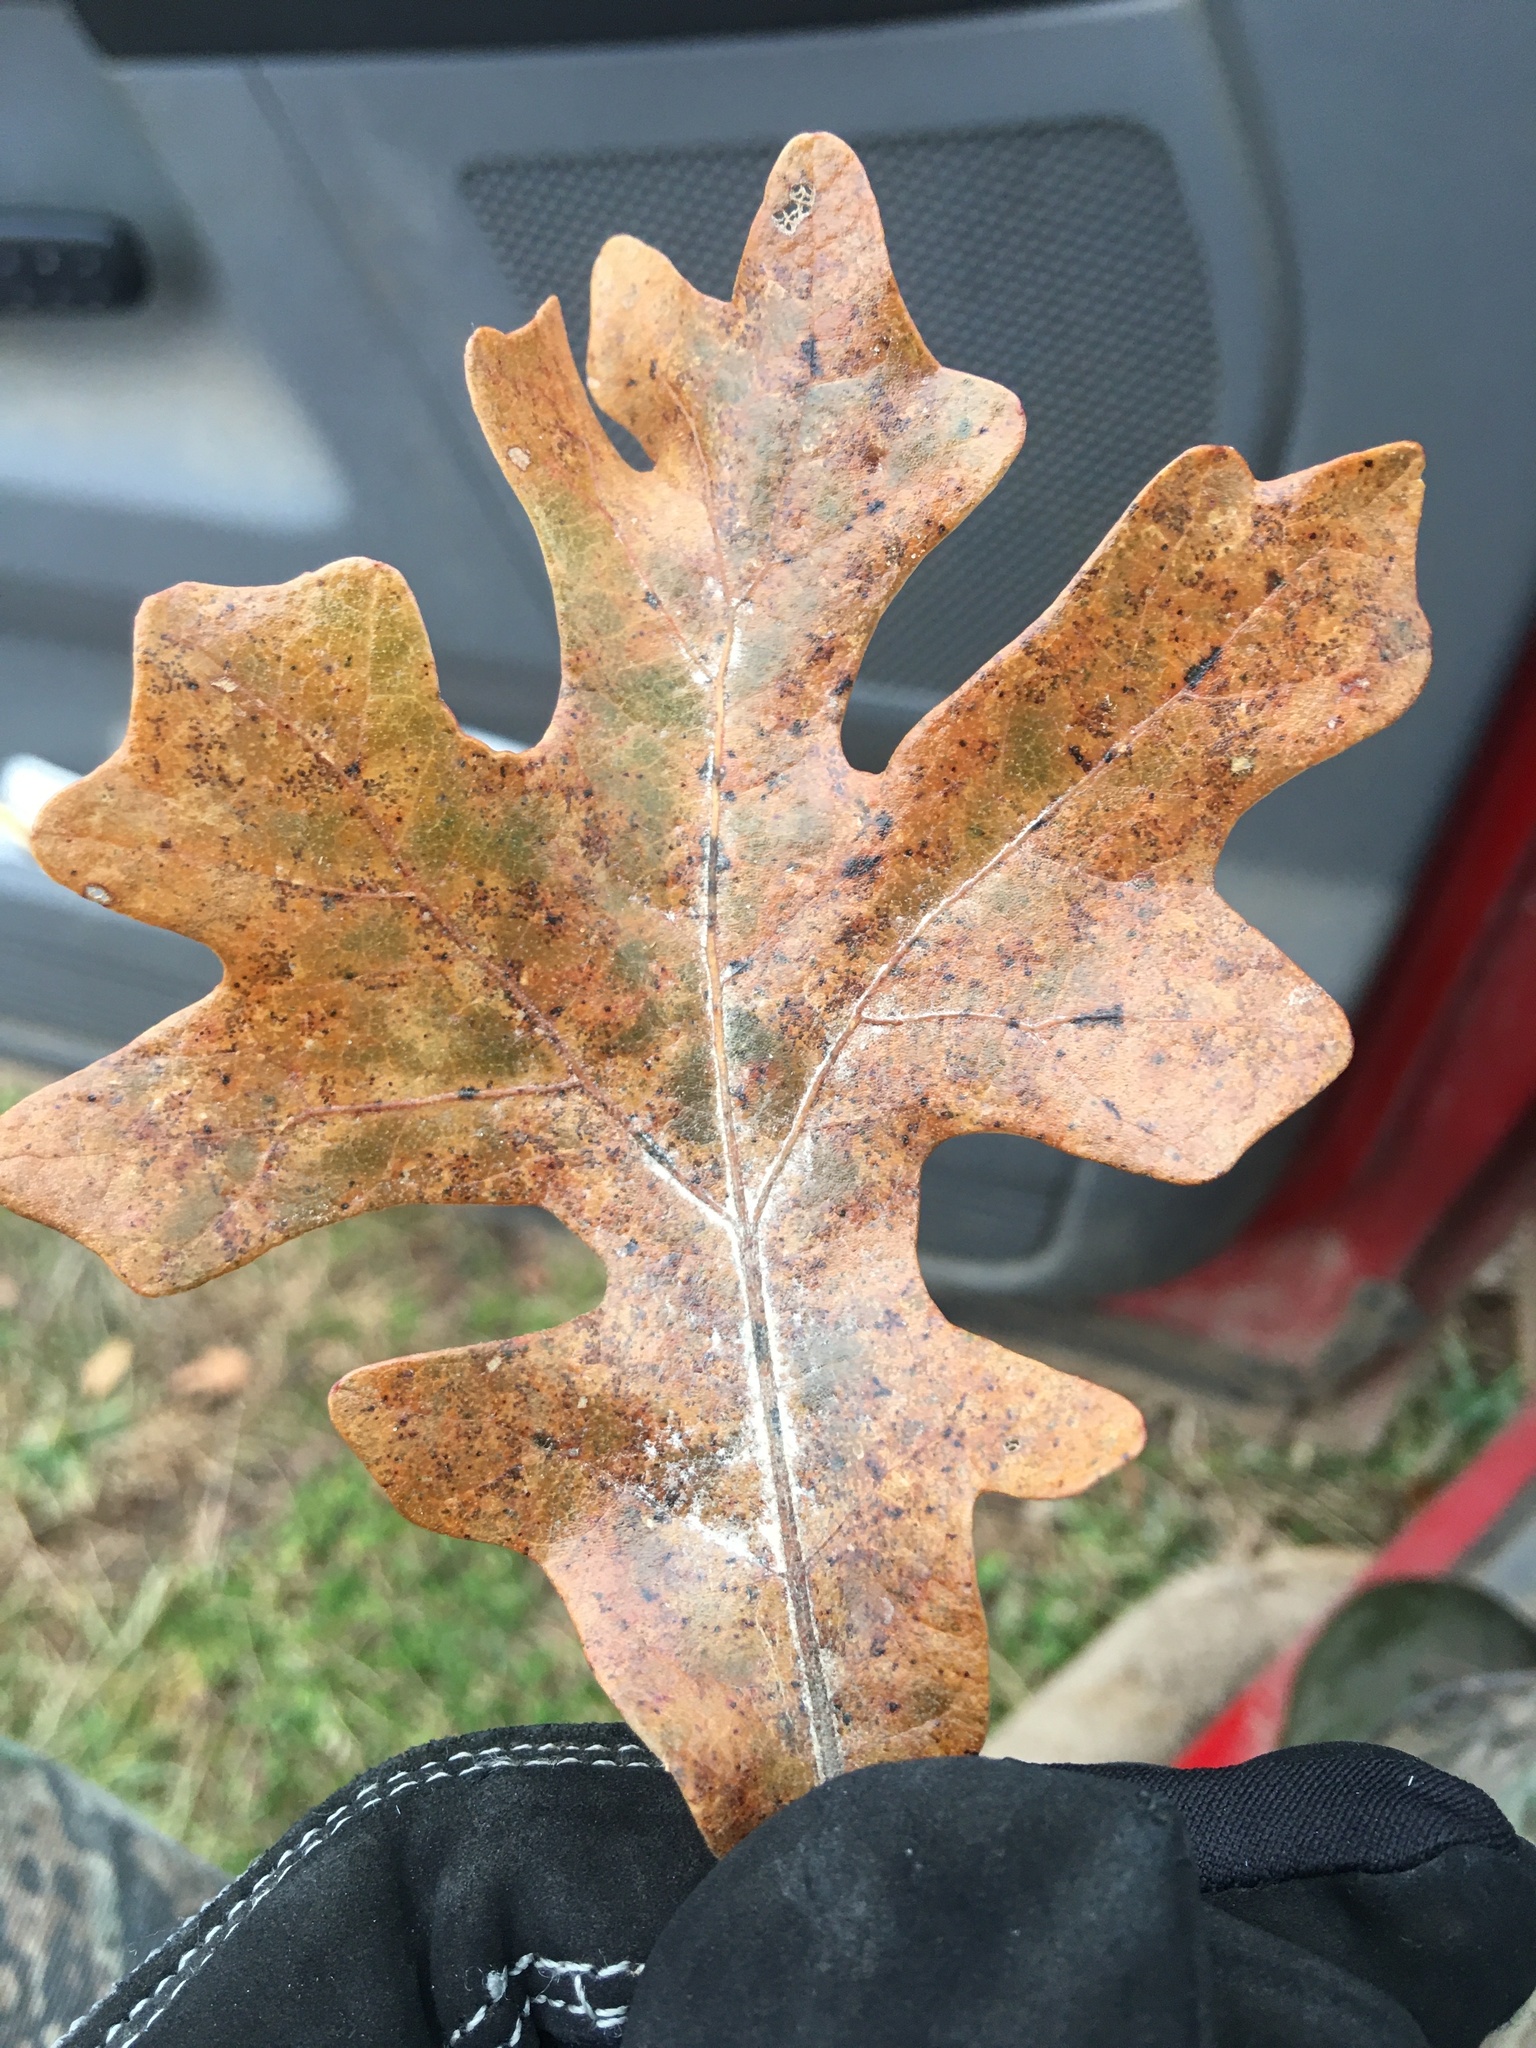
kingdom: Plantae
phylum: Tracheophyta
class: Magnoliopsida
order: Fagales
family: Fagaceae
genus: Quercus
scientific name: Quercus stellata
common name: Post oak
